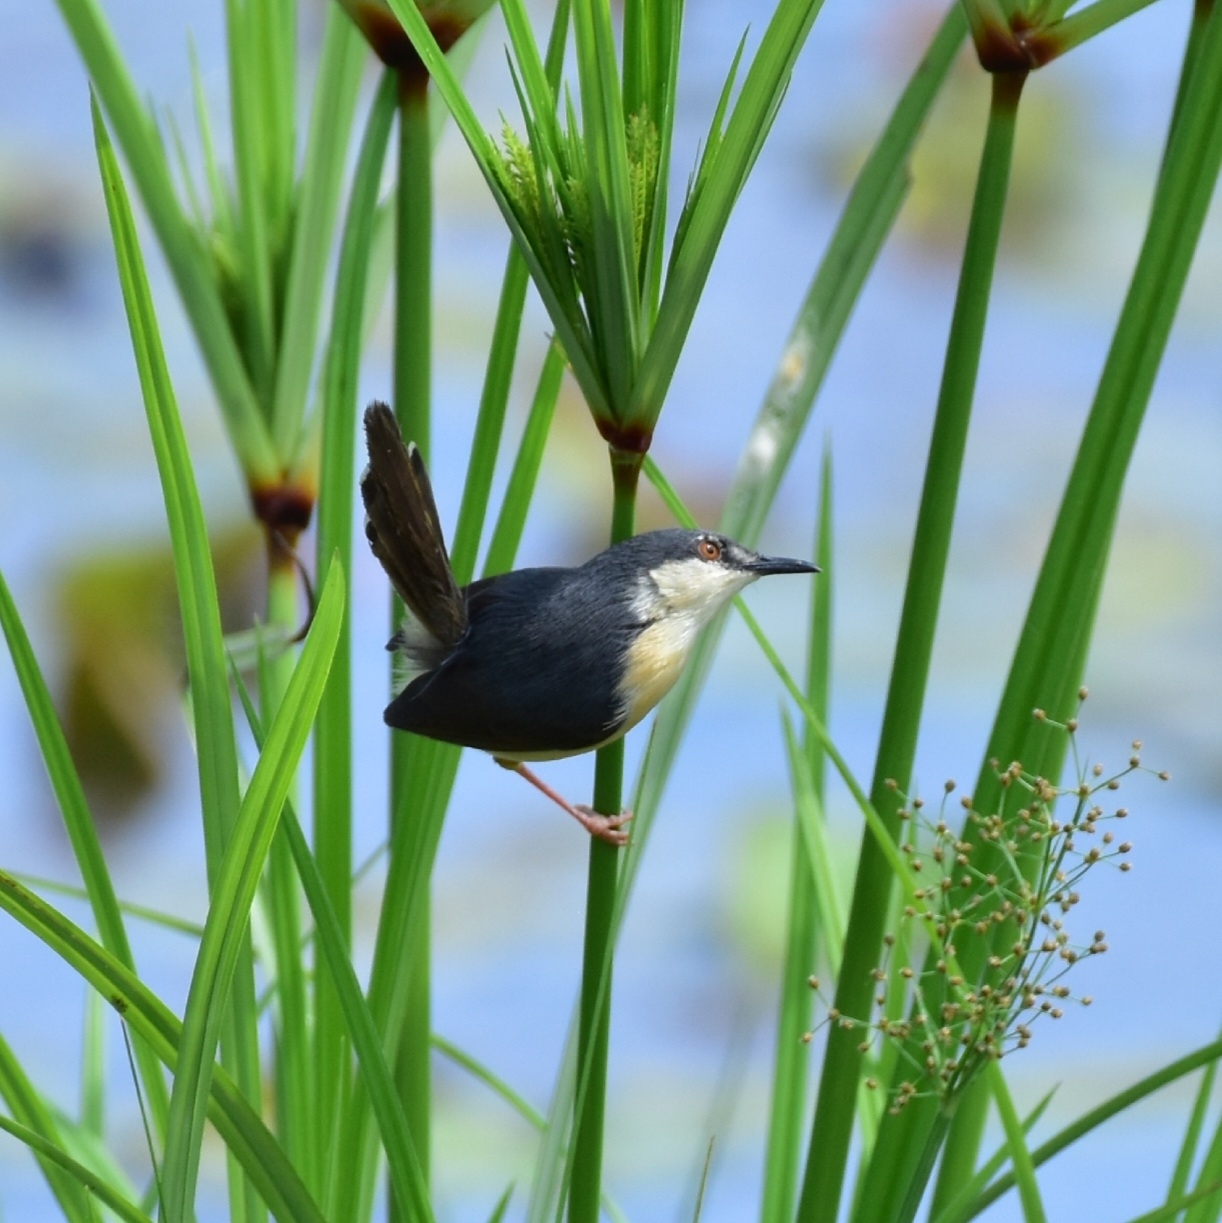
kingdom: Animalia
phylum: Chordata
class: Aves
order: Passeriformes
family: Cisticolidae
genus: Prinia
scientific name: Prinia socialis
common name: Ashy prinia
